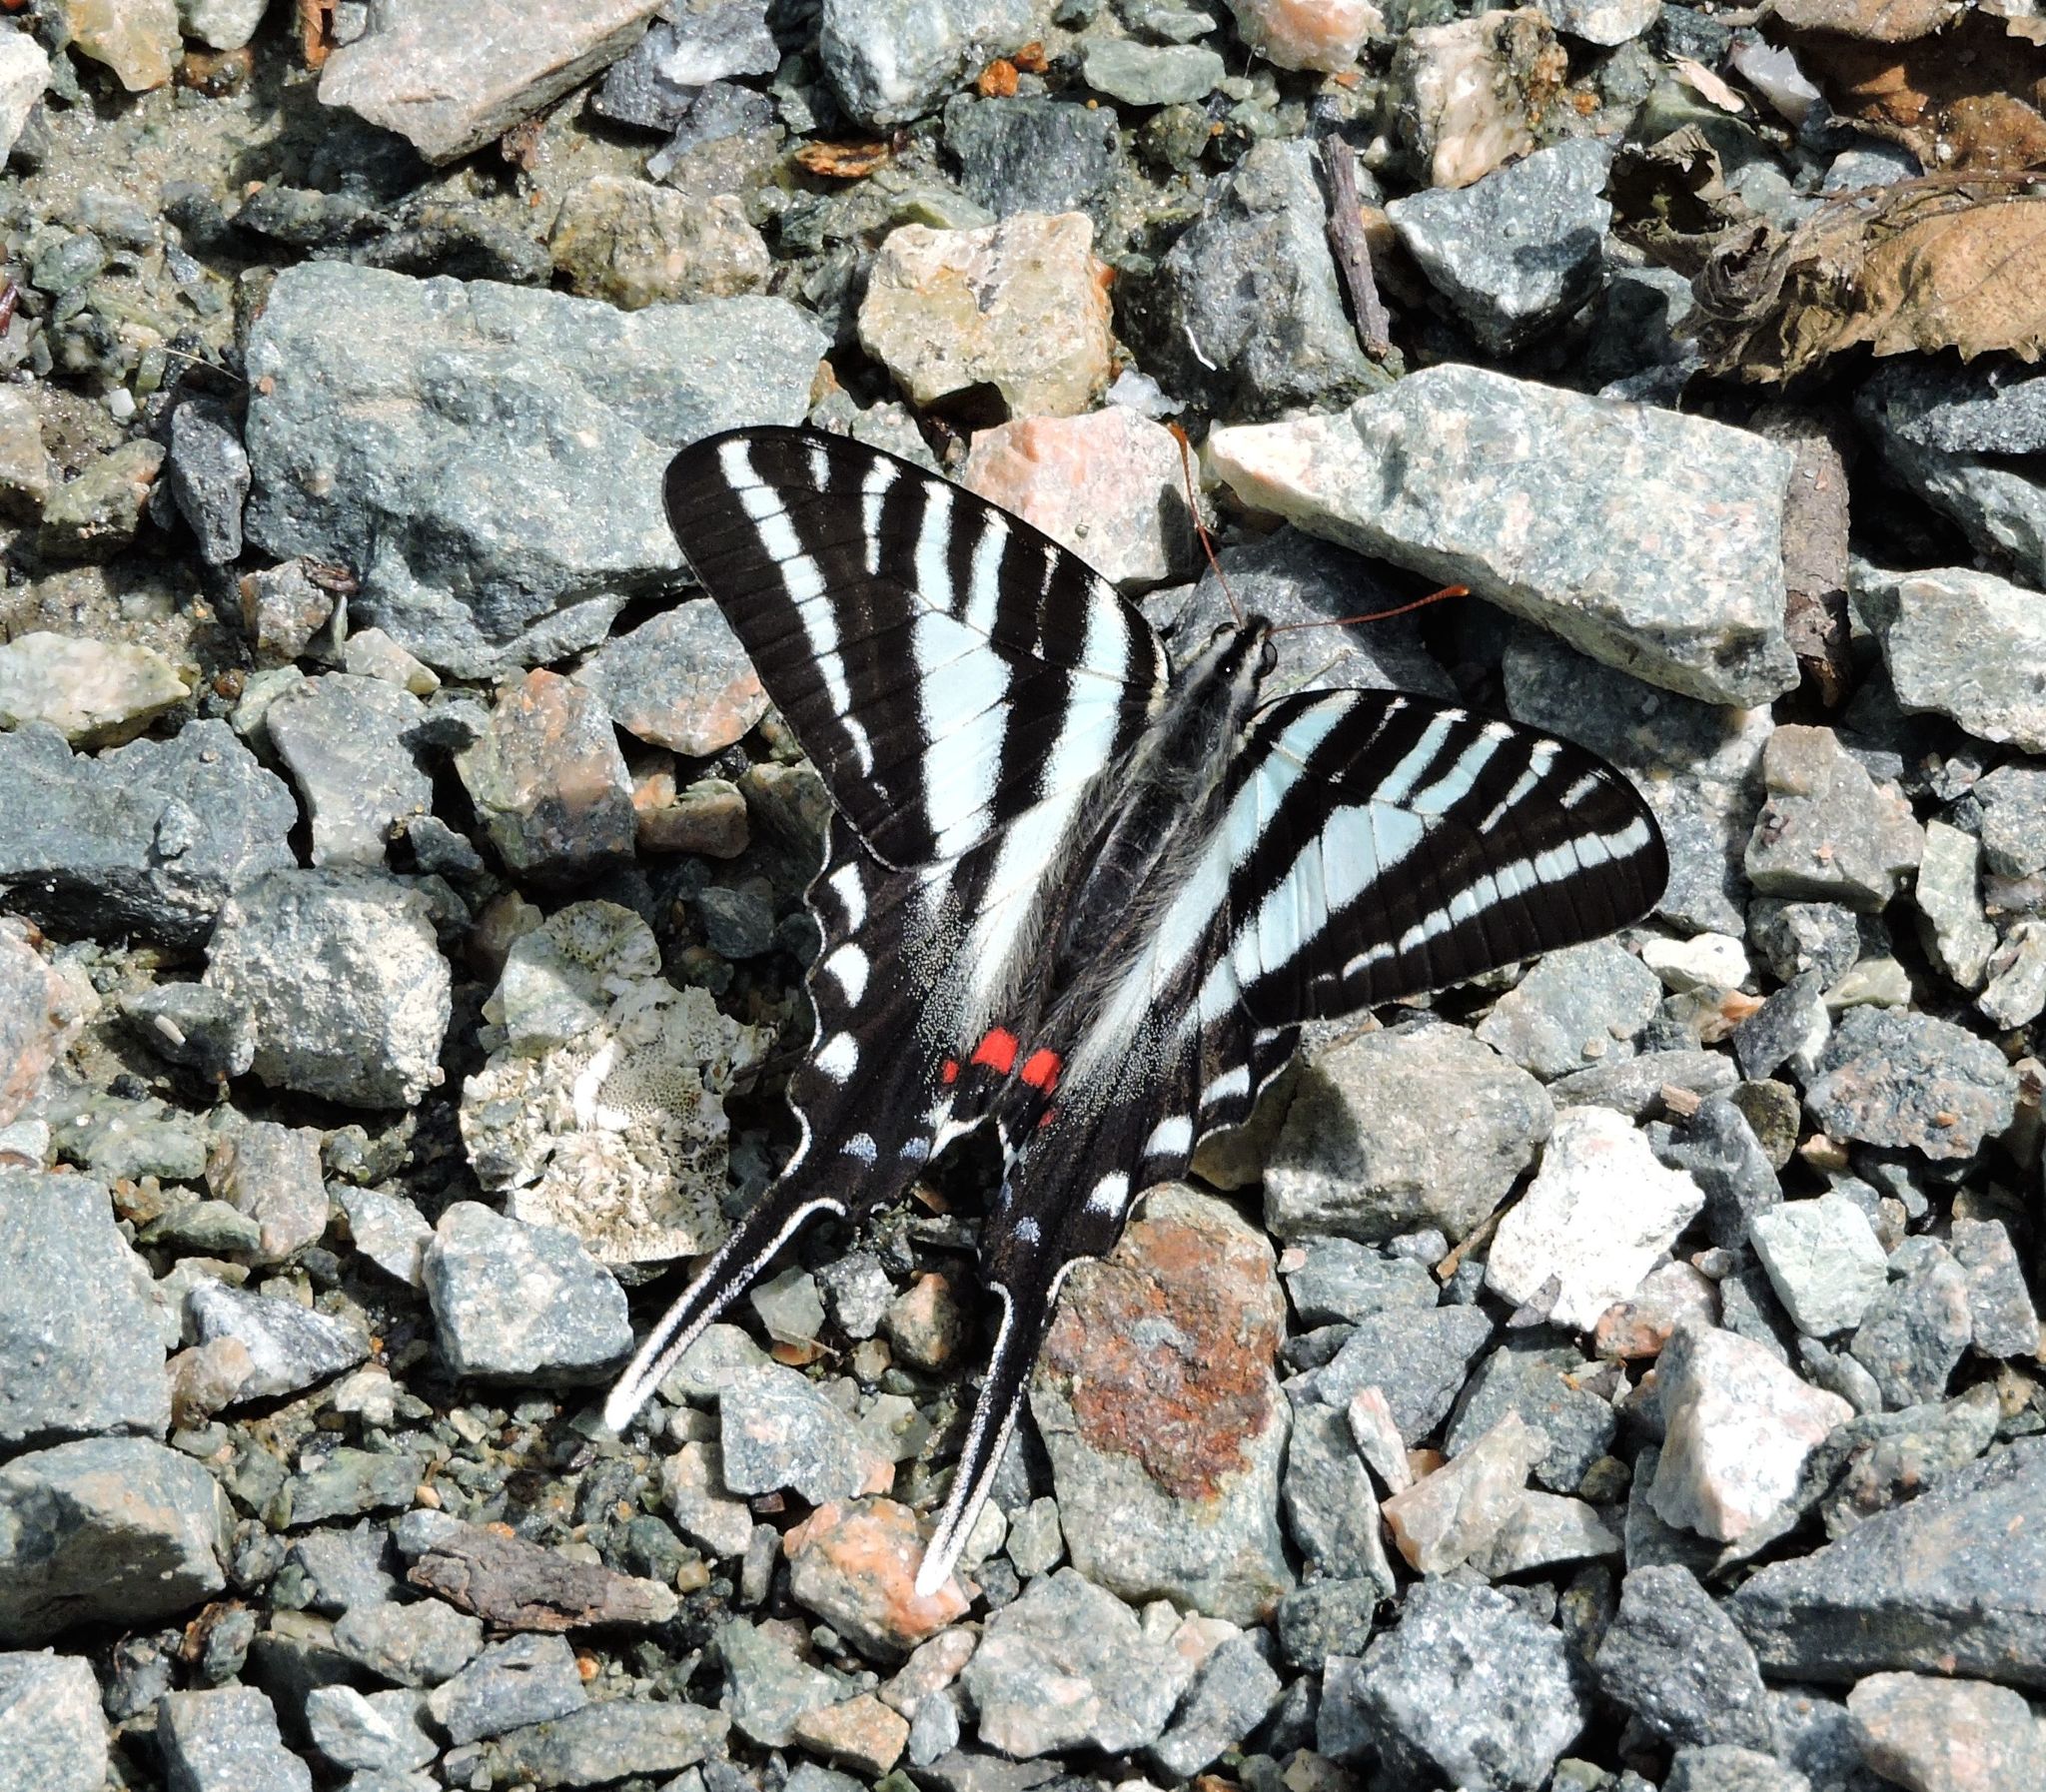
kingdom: Animalia
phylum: Arthropoda
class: Insecta
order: Lepidoptera
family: Papilionidae
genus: Protographium
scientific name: Protographium marcellus
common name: Zebra swallowtail
